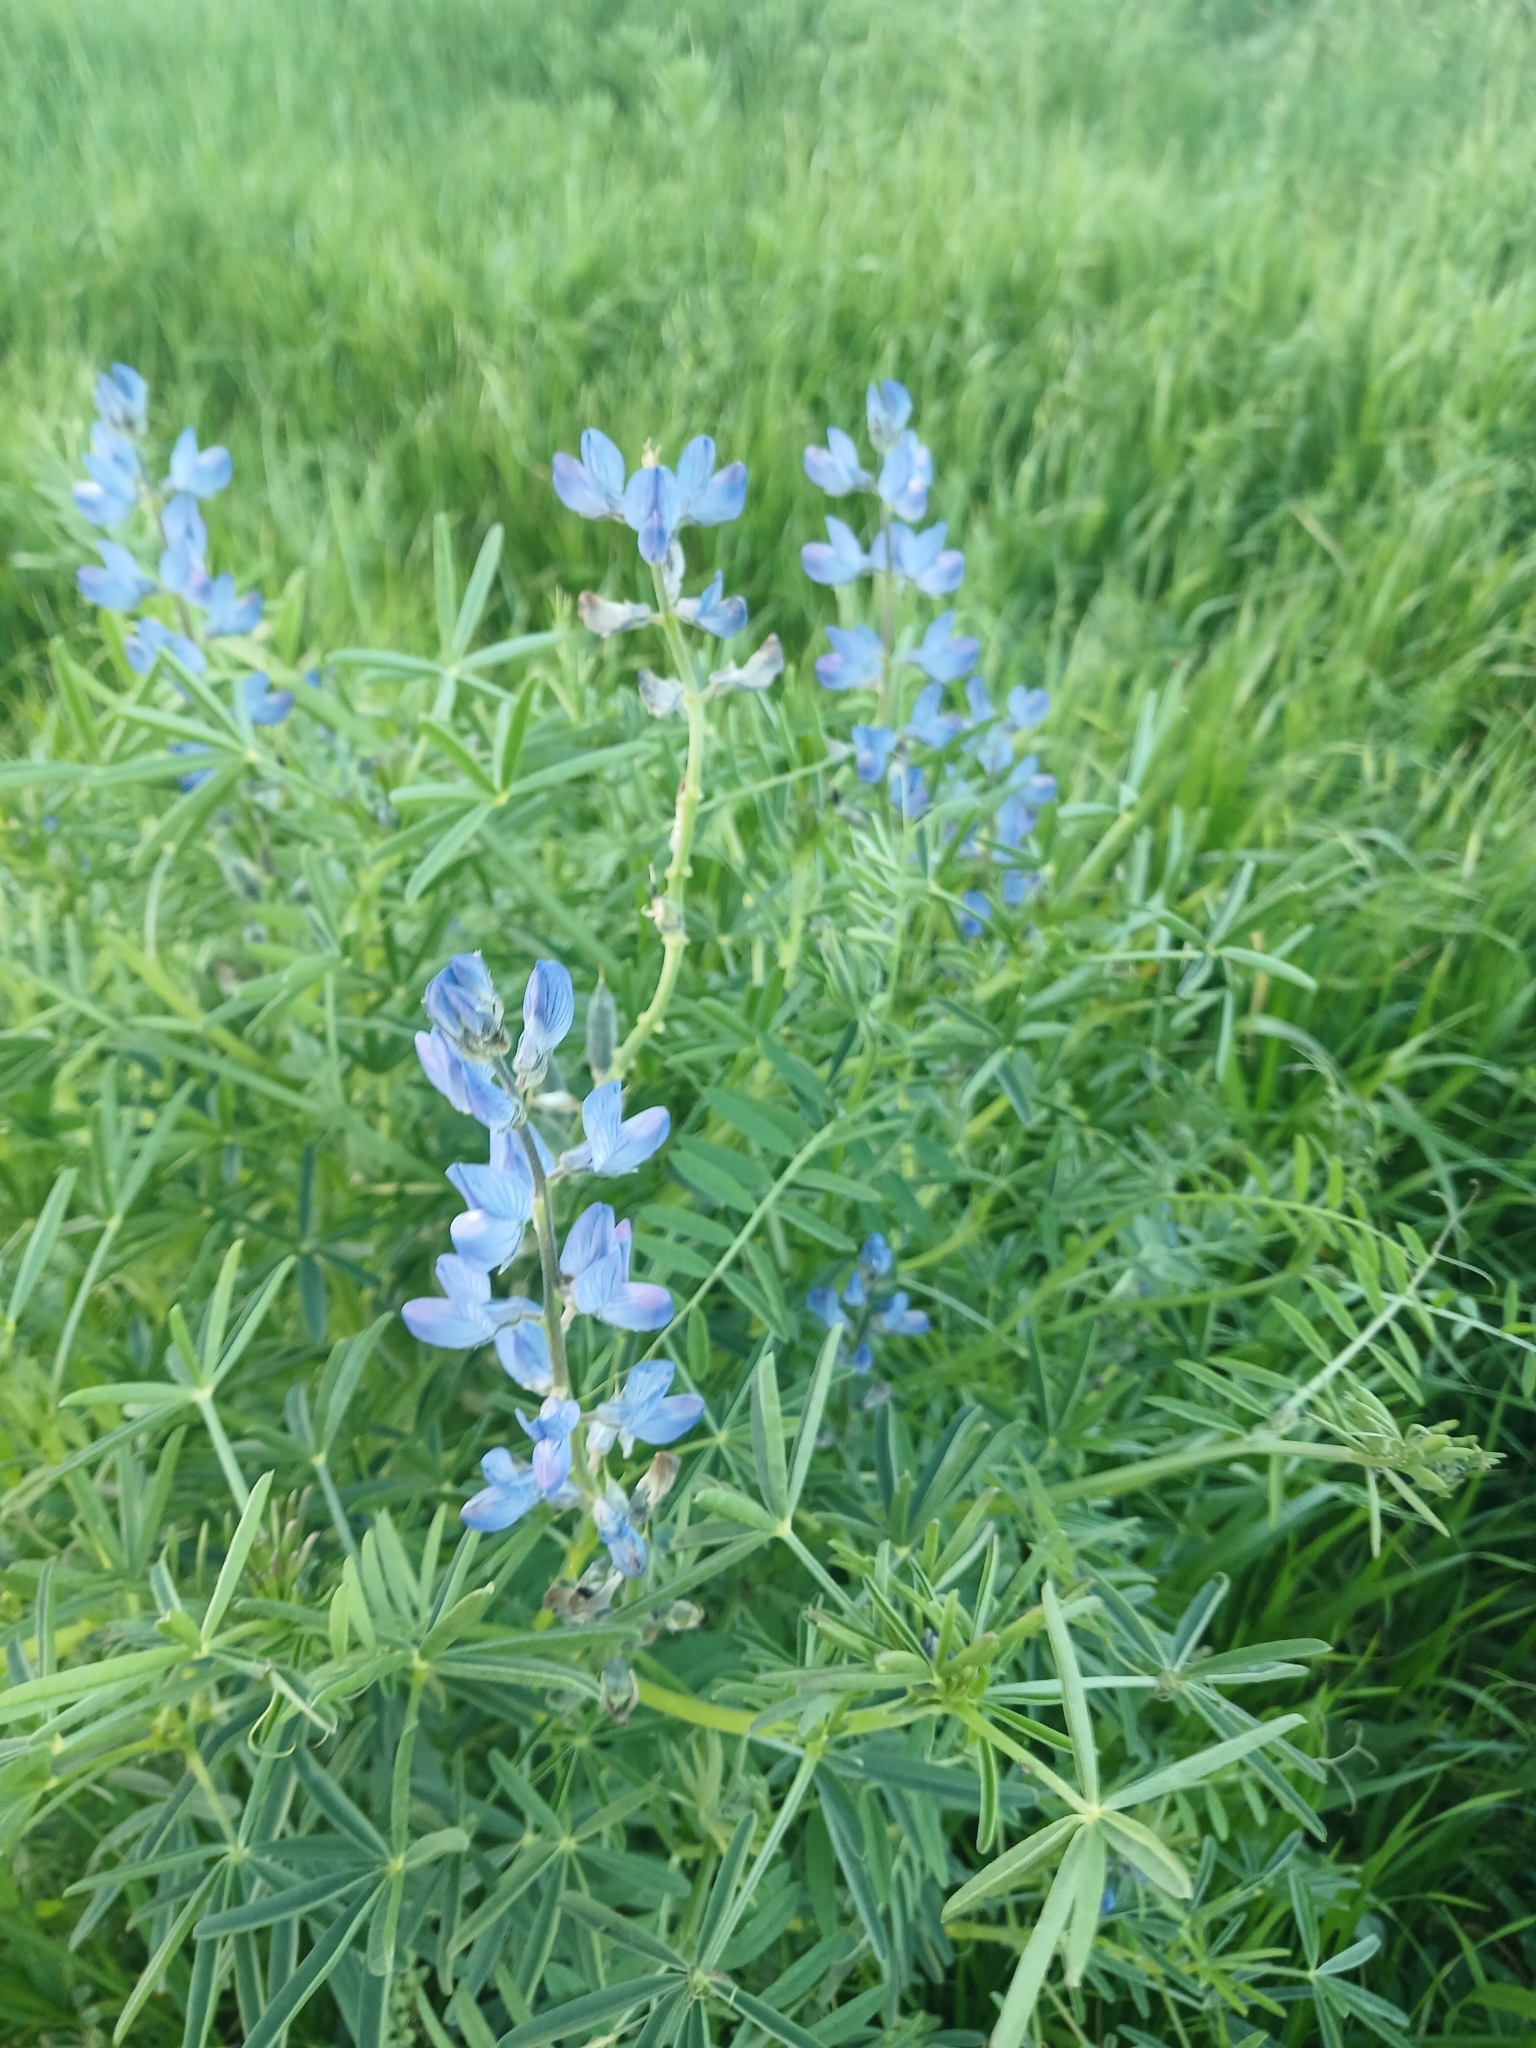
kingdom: Plantae
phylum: Tracheophyta
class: Magnoliopsida
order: Fabales
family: Fabaceae
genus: Lupinus
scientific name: Lupinus angustifolius
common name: Narrow-leaved lupin
